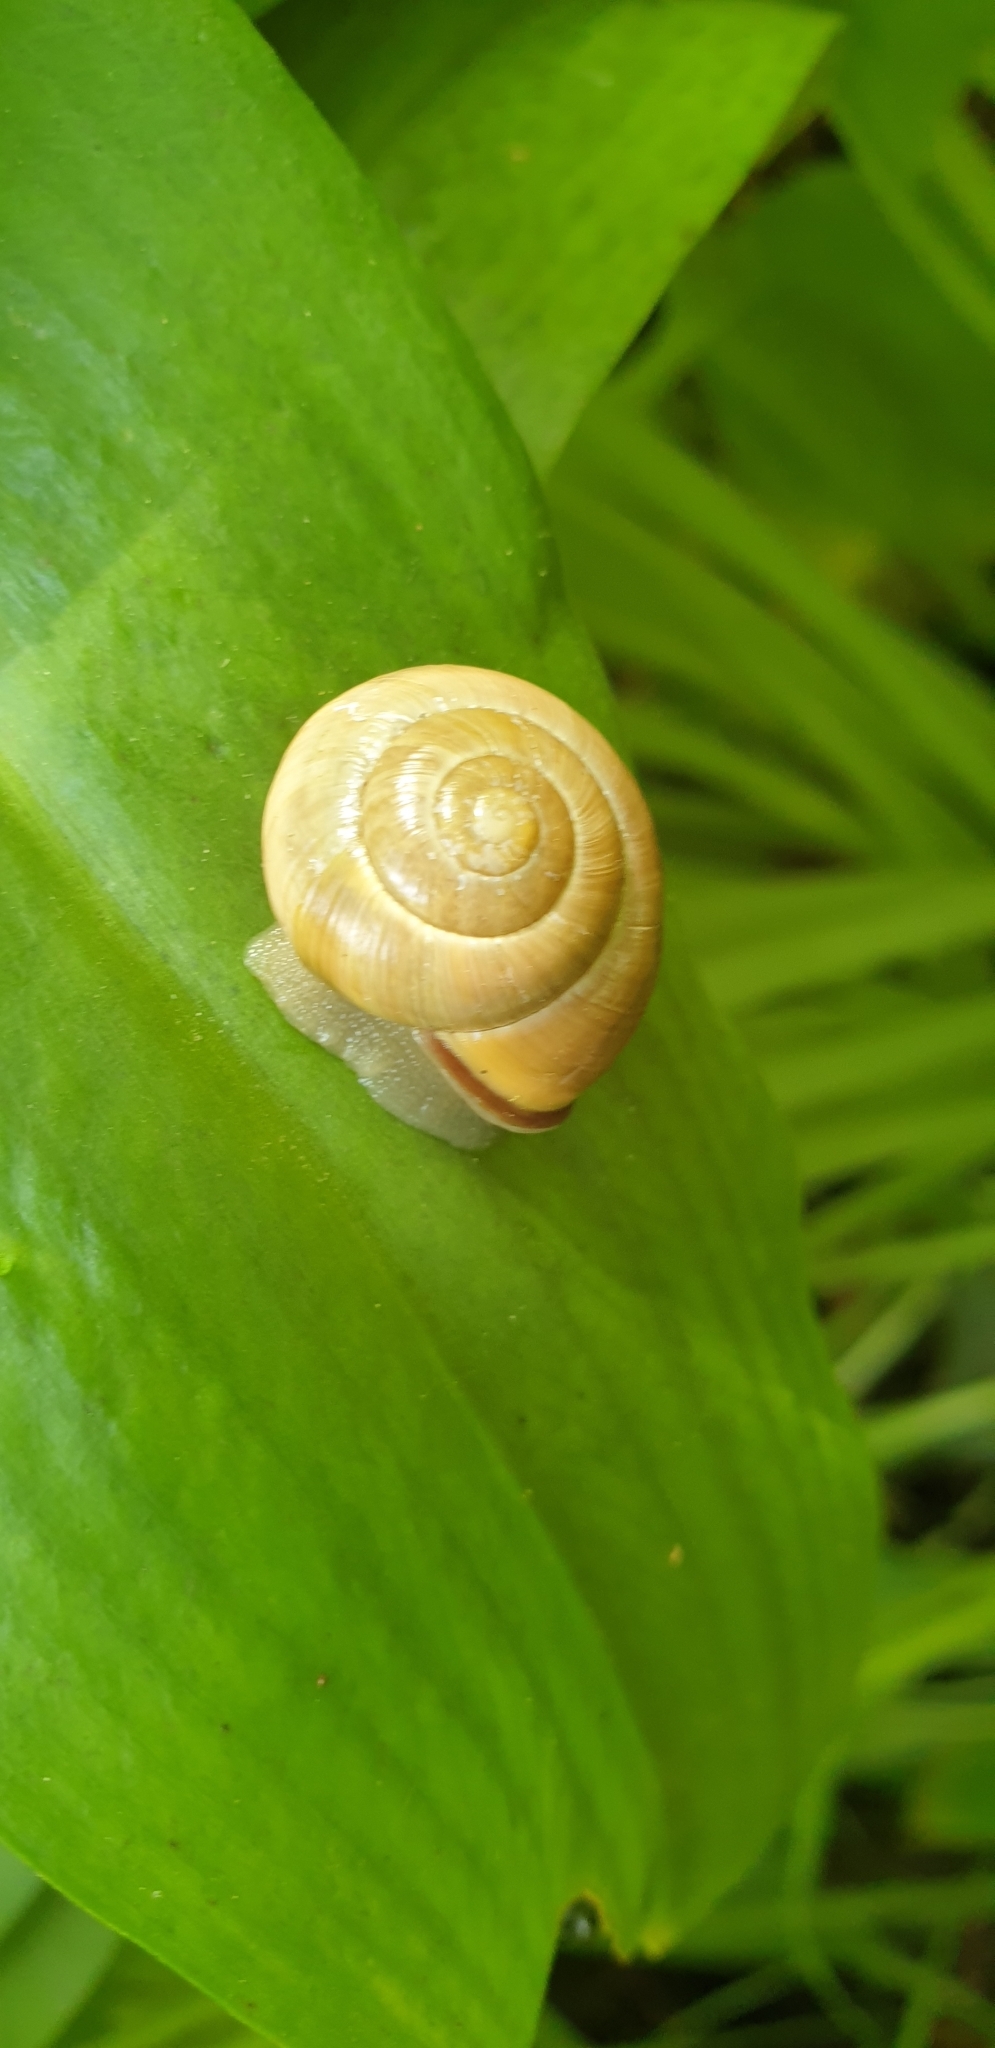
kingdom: Animalia
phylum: Mollusca
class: Gastropoda
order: Stylommatophora
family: Helicidae
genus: Cepaea
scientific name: Cepaea nemoralis
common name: Grovesnail
